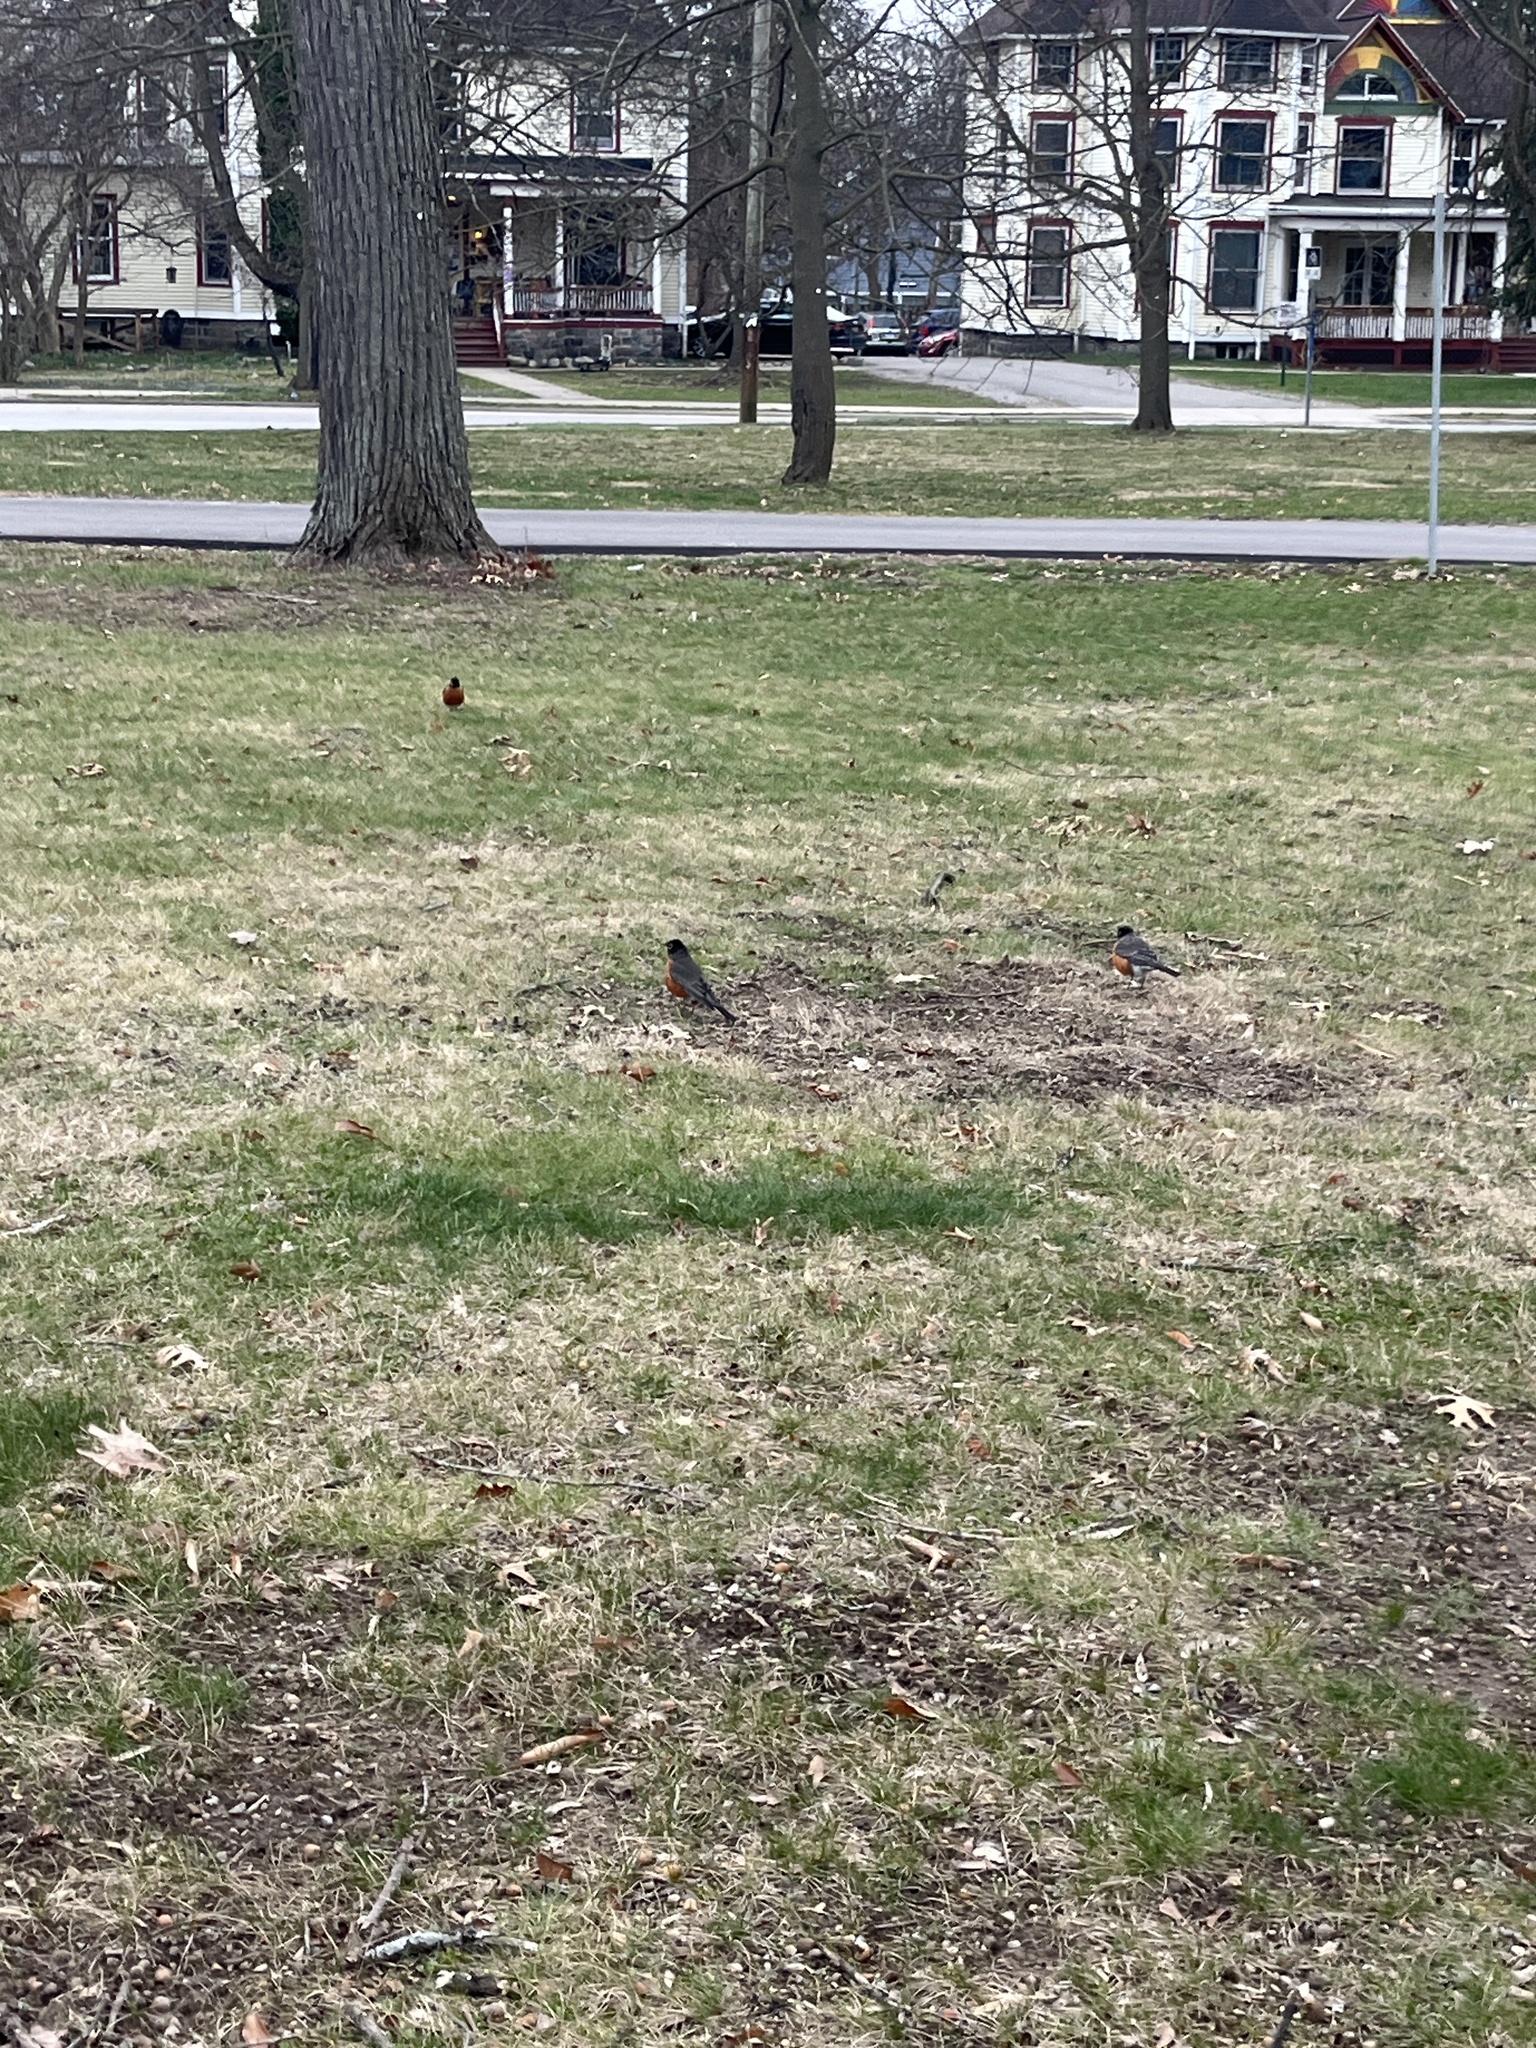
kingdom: Animalia
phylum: Chordata
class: Aves
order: Passeriformes
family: Turdidae
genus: Turdus
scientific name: Turdus migratorius
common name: American robin
